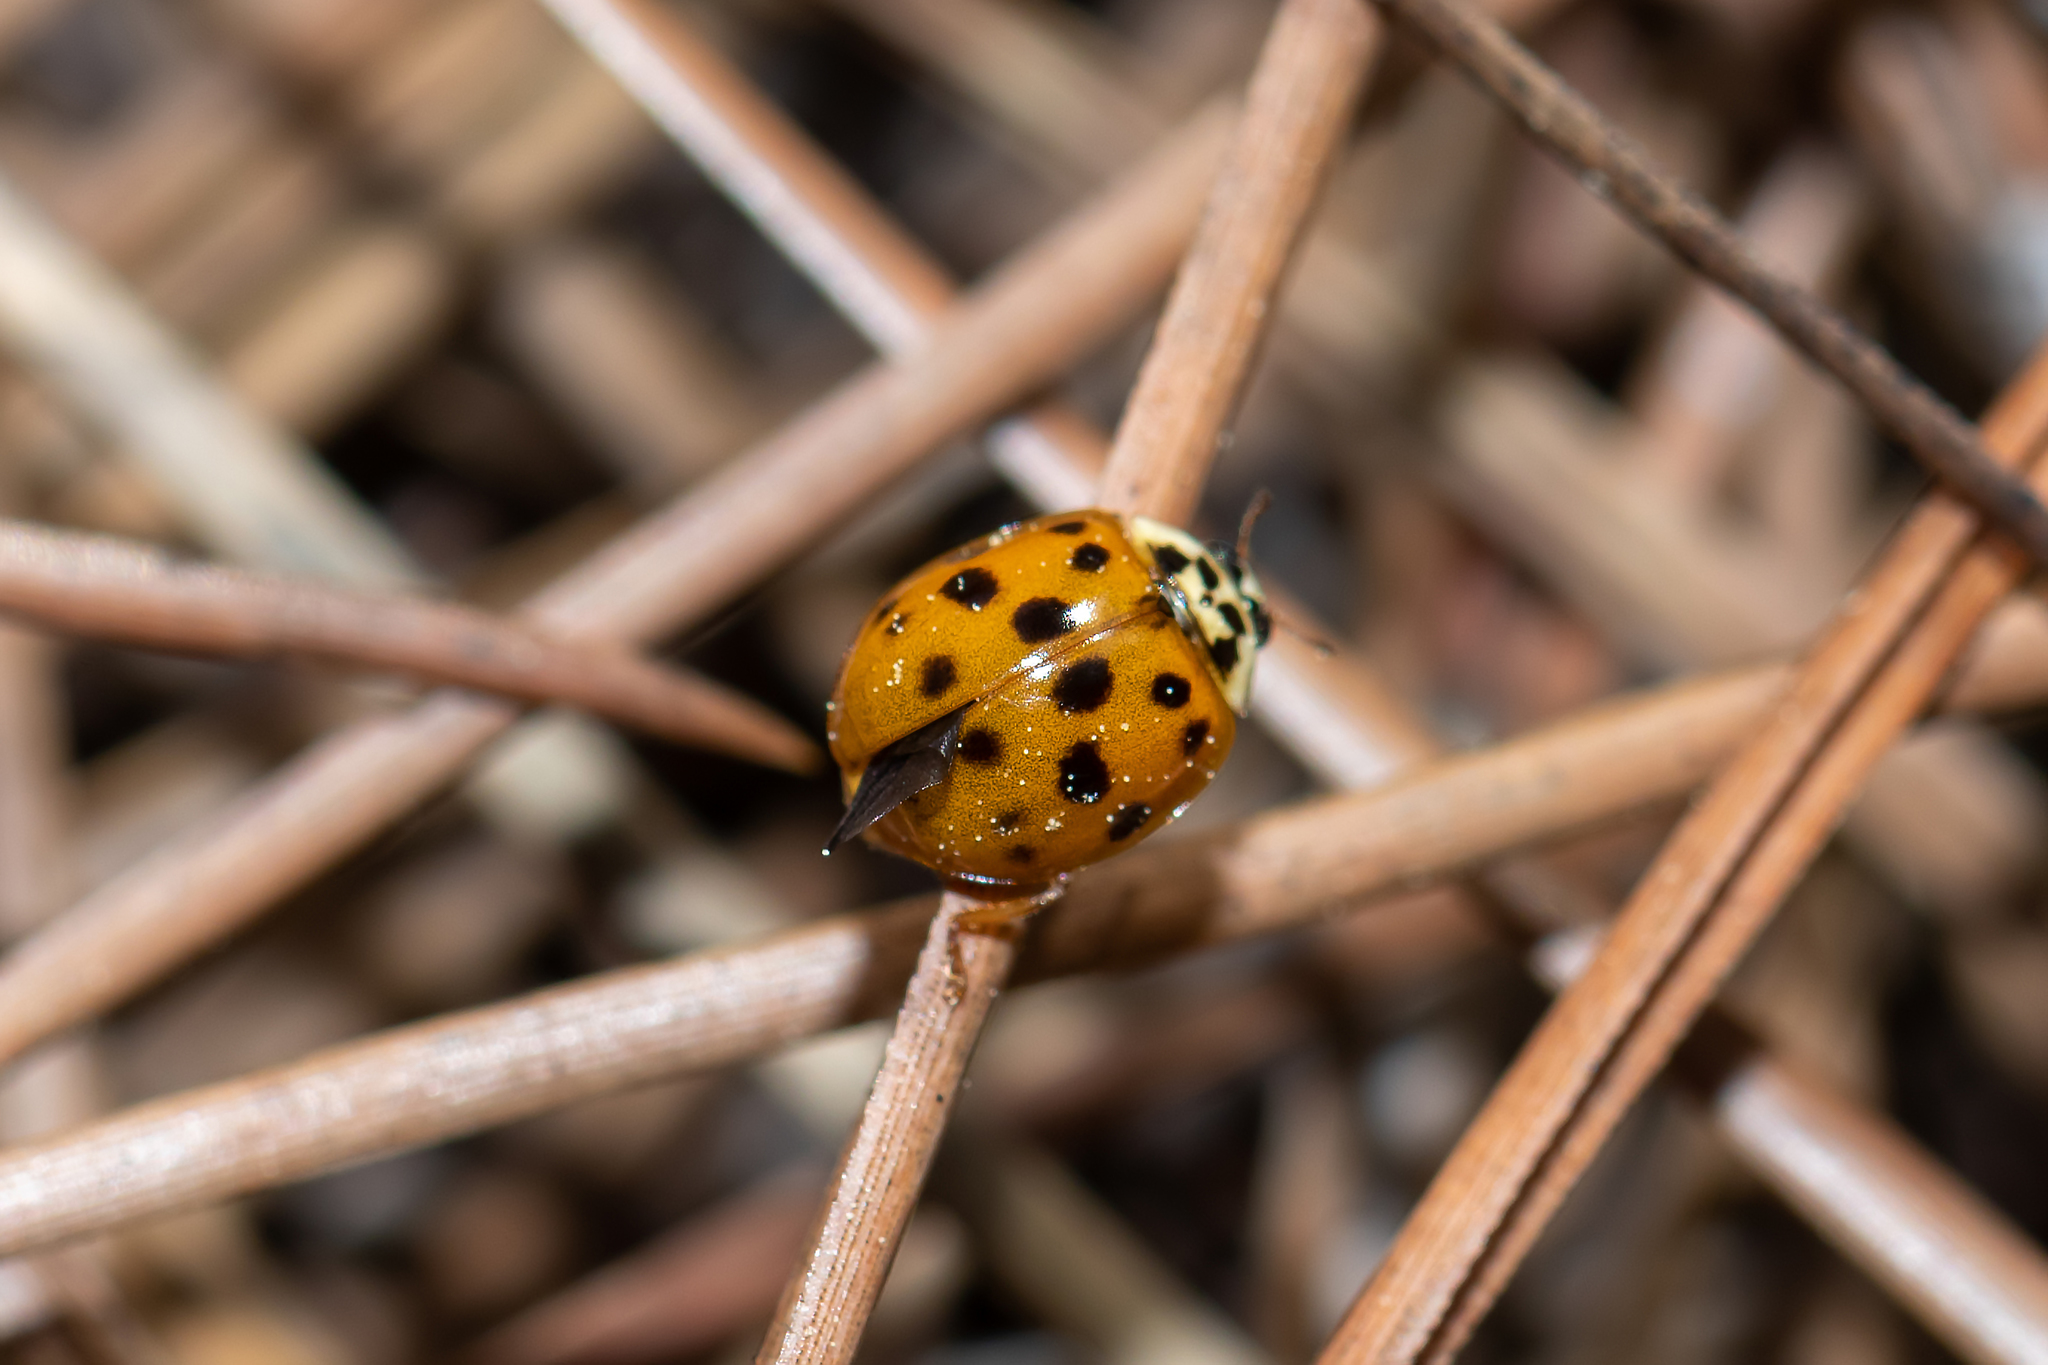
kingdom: Animalia
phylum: Arthropoda
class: Insecta
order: Coleoptera
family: Coccinellidae
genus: Harmonia
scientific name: Harmonia axyridis
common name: Harlequin ladybird
